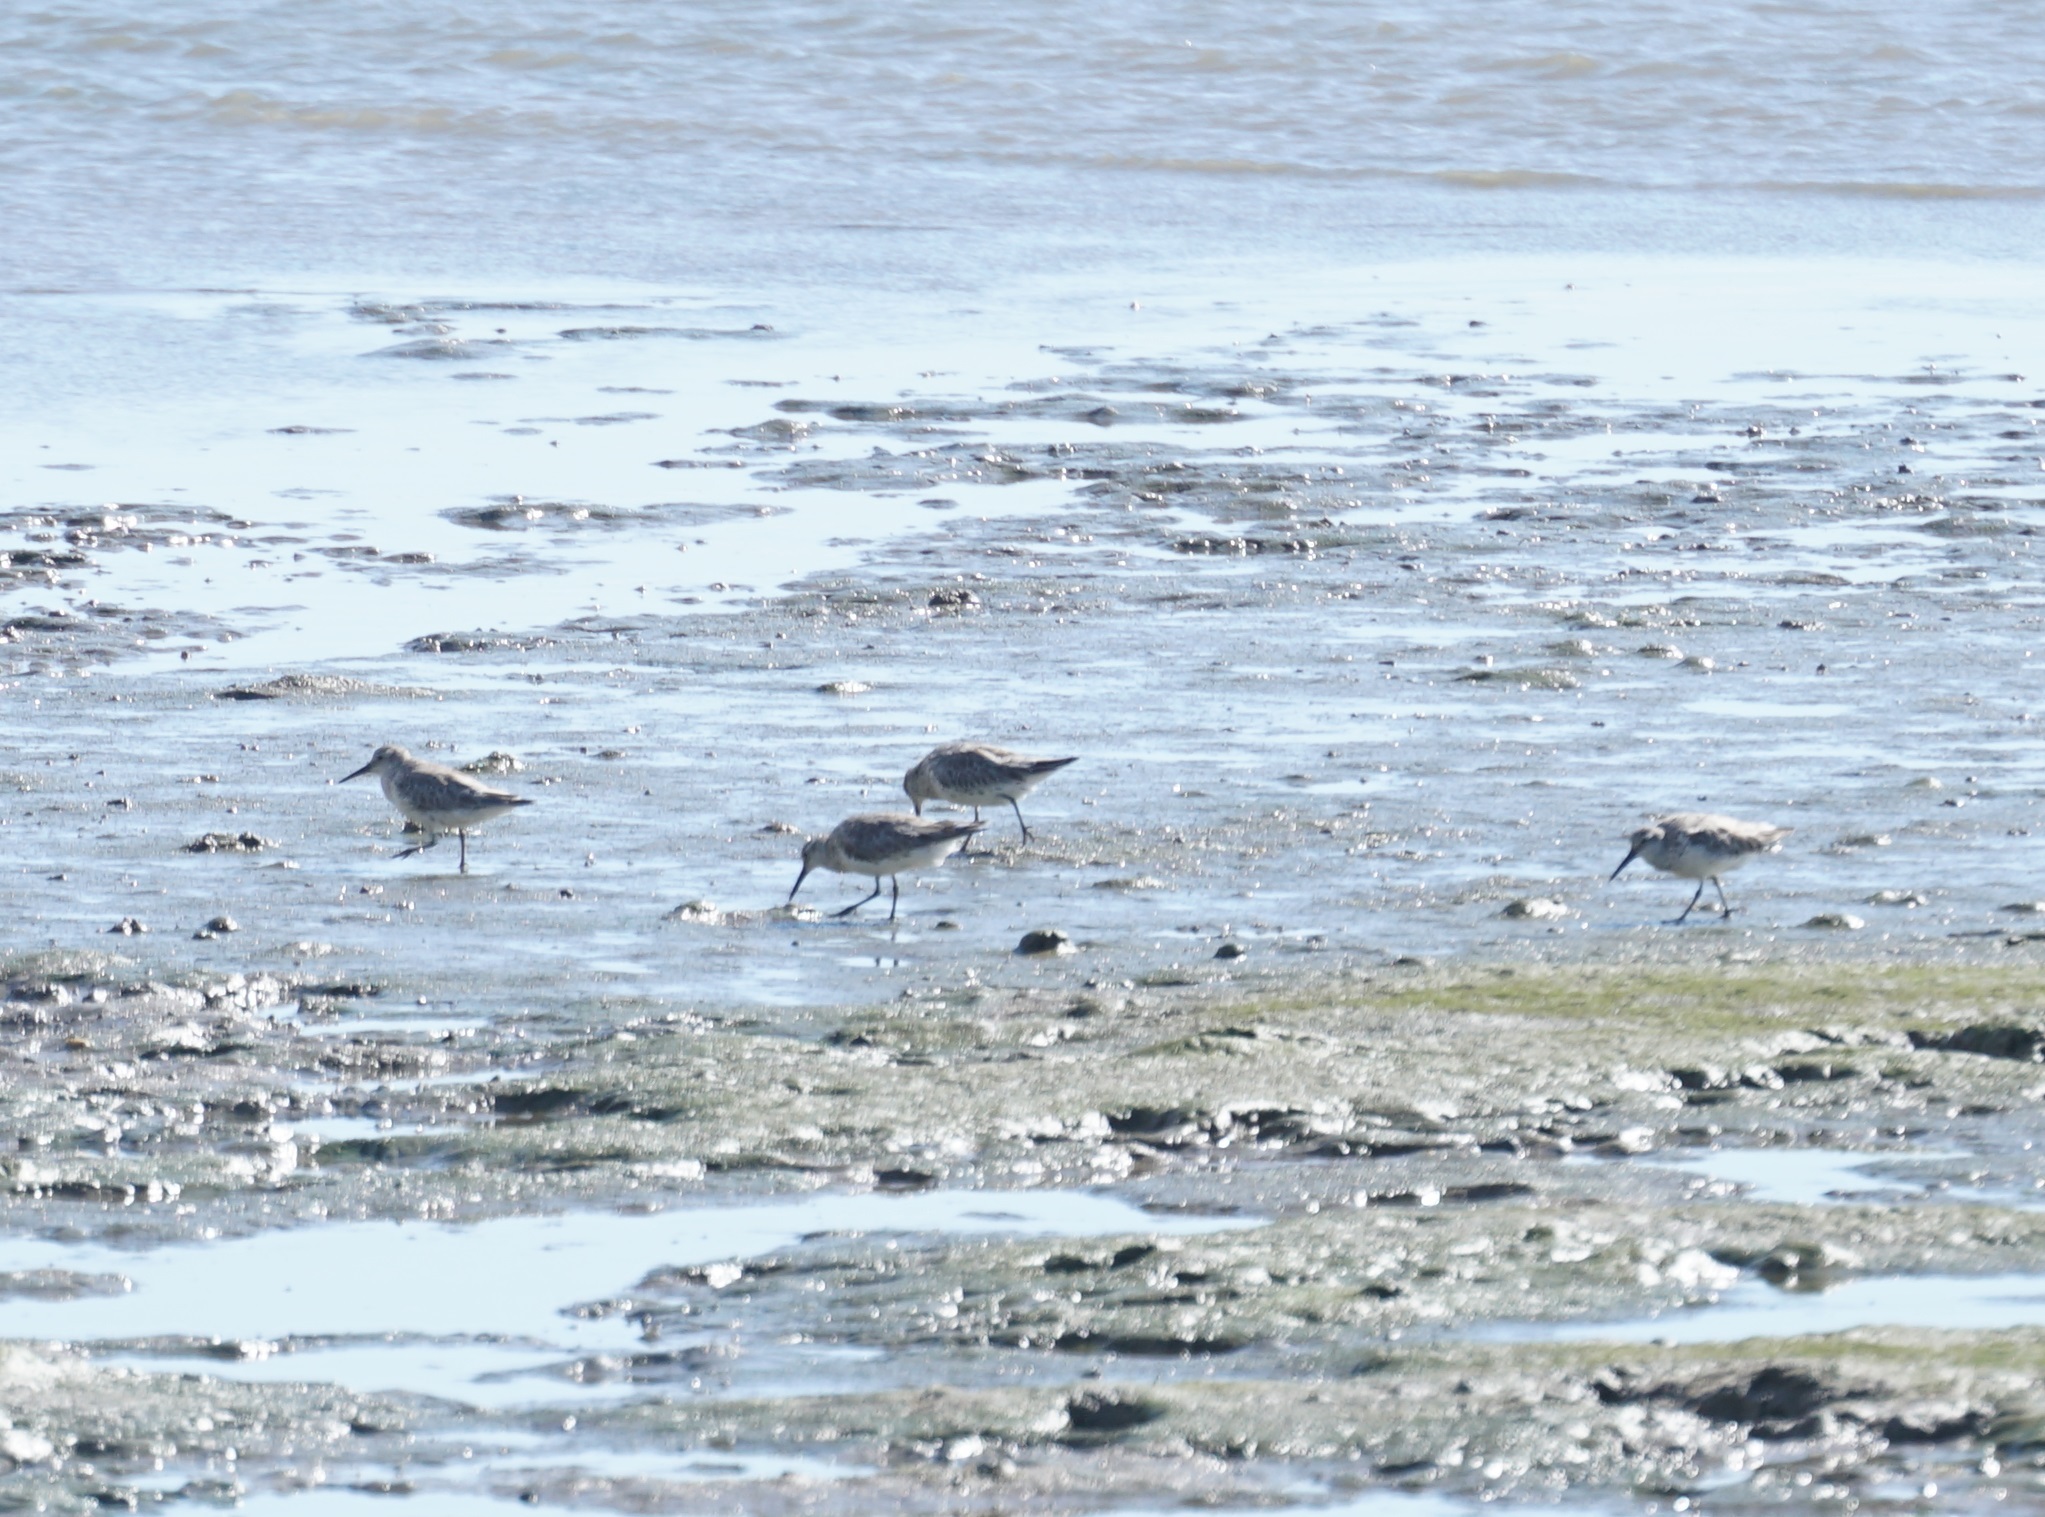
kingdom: Animalia
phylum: Chordata
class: Aves
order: Charadriiformes
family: Scolopacidae
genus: Calidris
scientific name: Calidris tenuirostris
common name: Great knot
